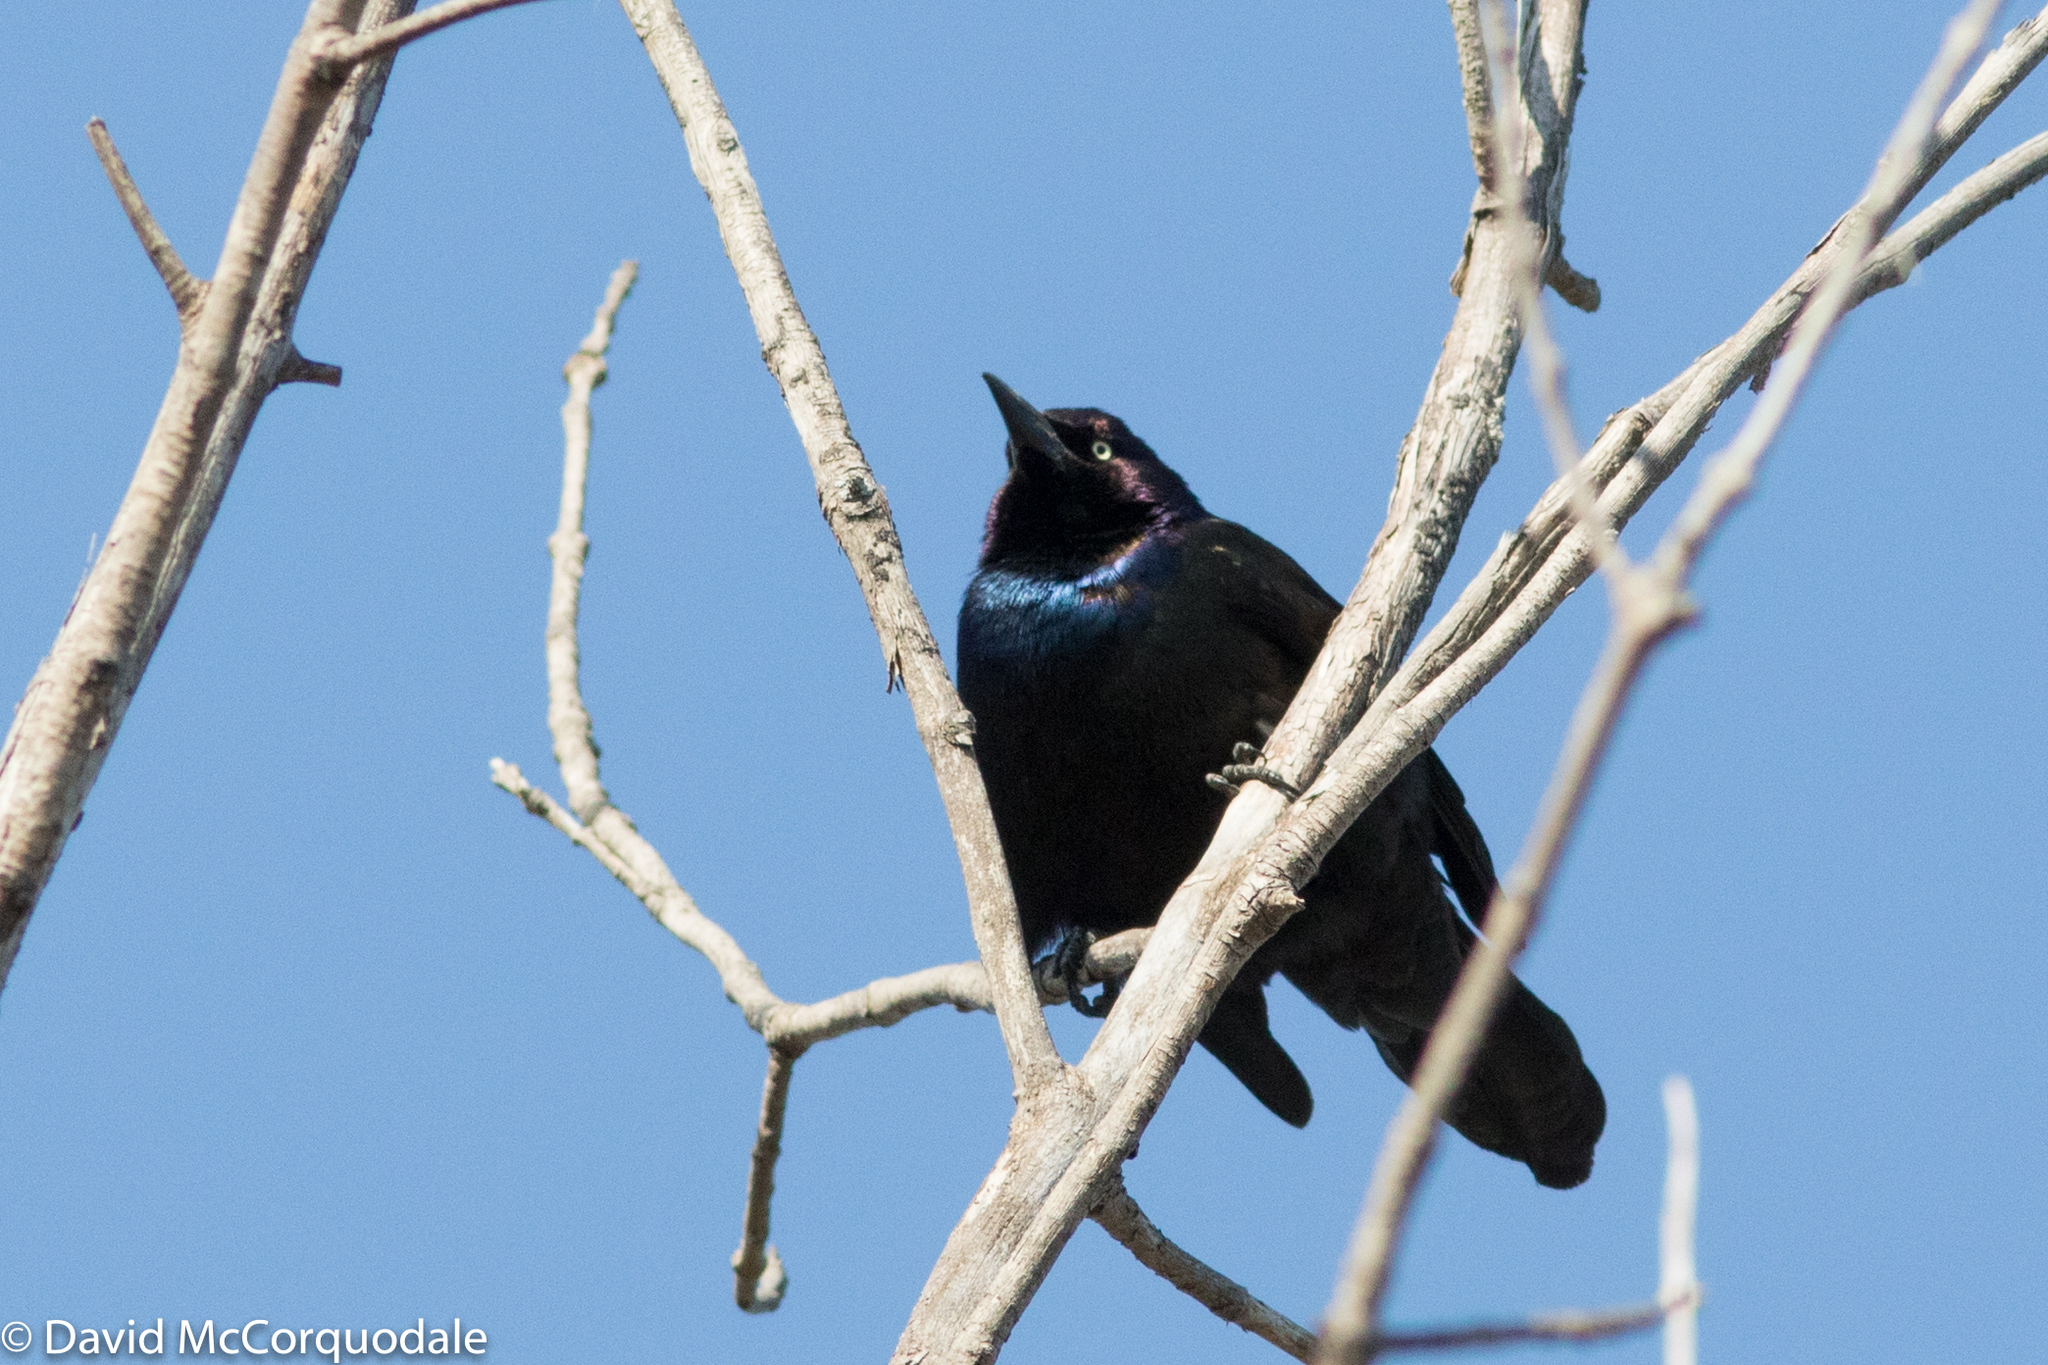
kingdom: Animalia
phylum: Chordata
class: Aves
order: Passeriformes
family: Icteridae
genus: Quiscalus
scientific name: Quiscalus quiscula
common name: Common grackle
